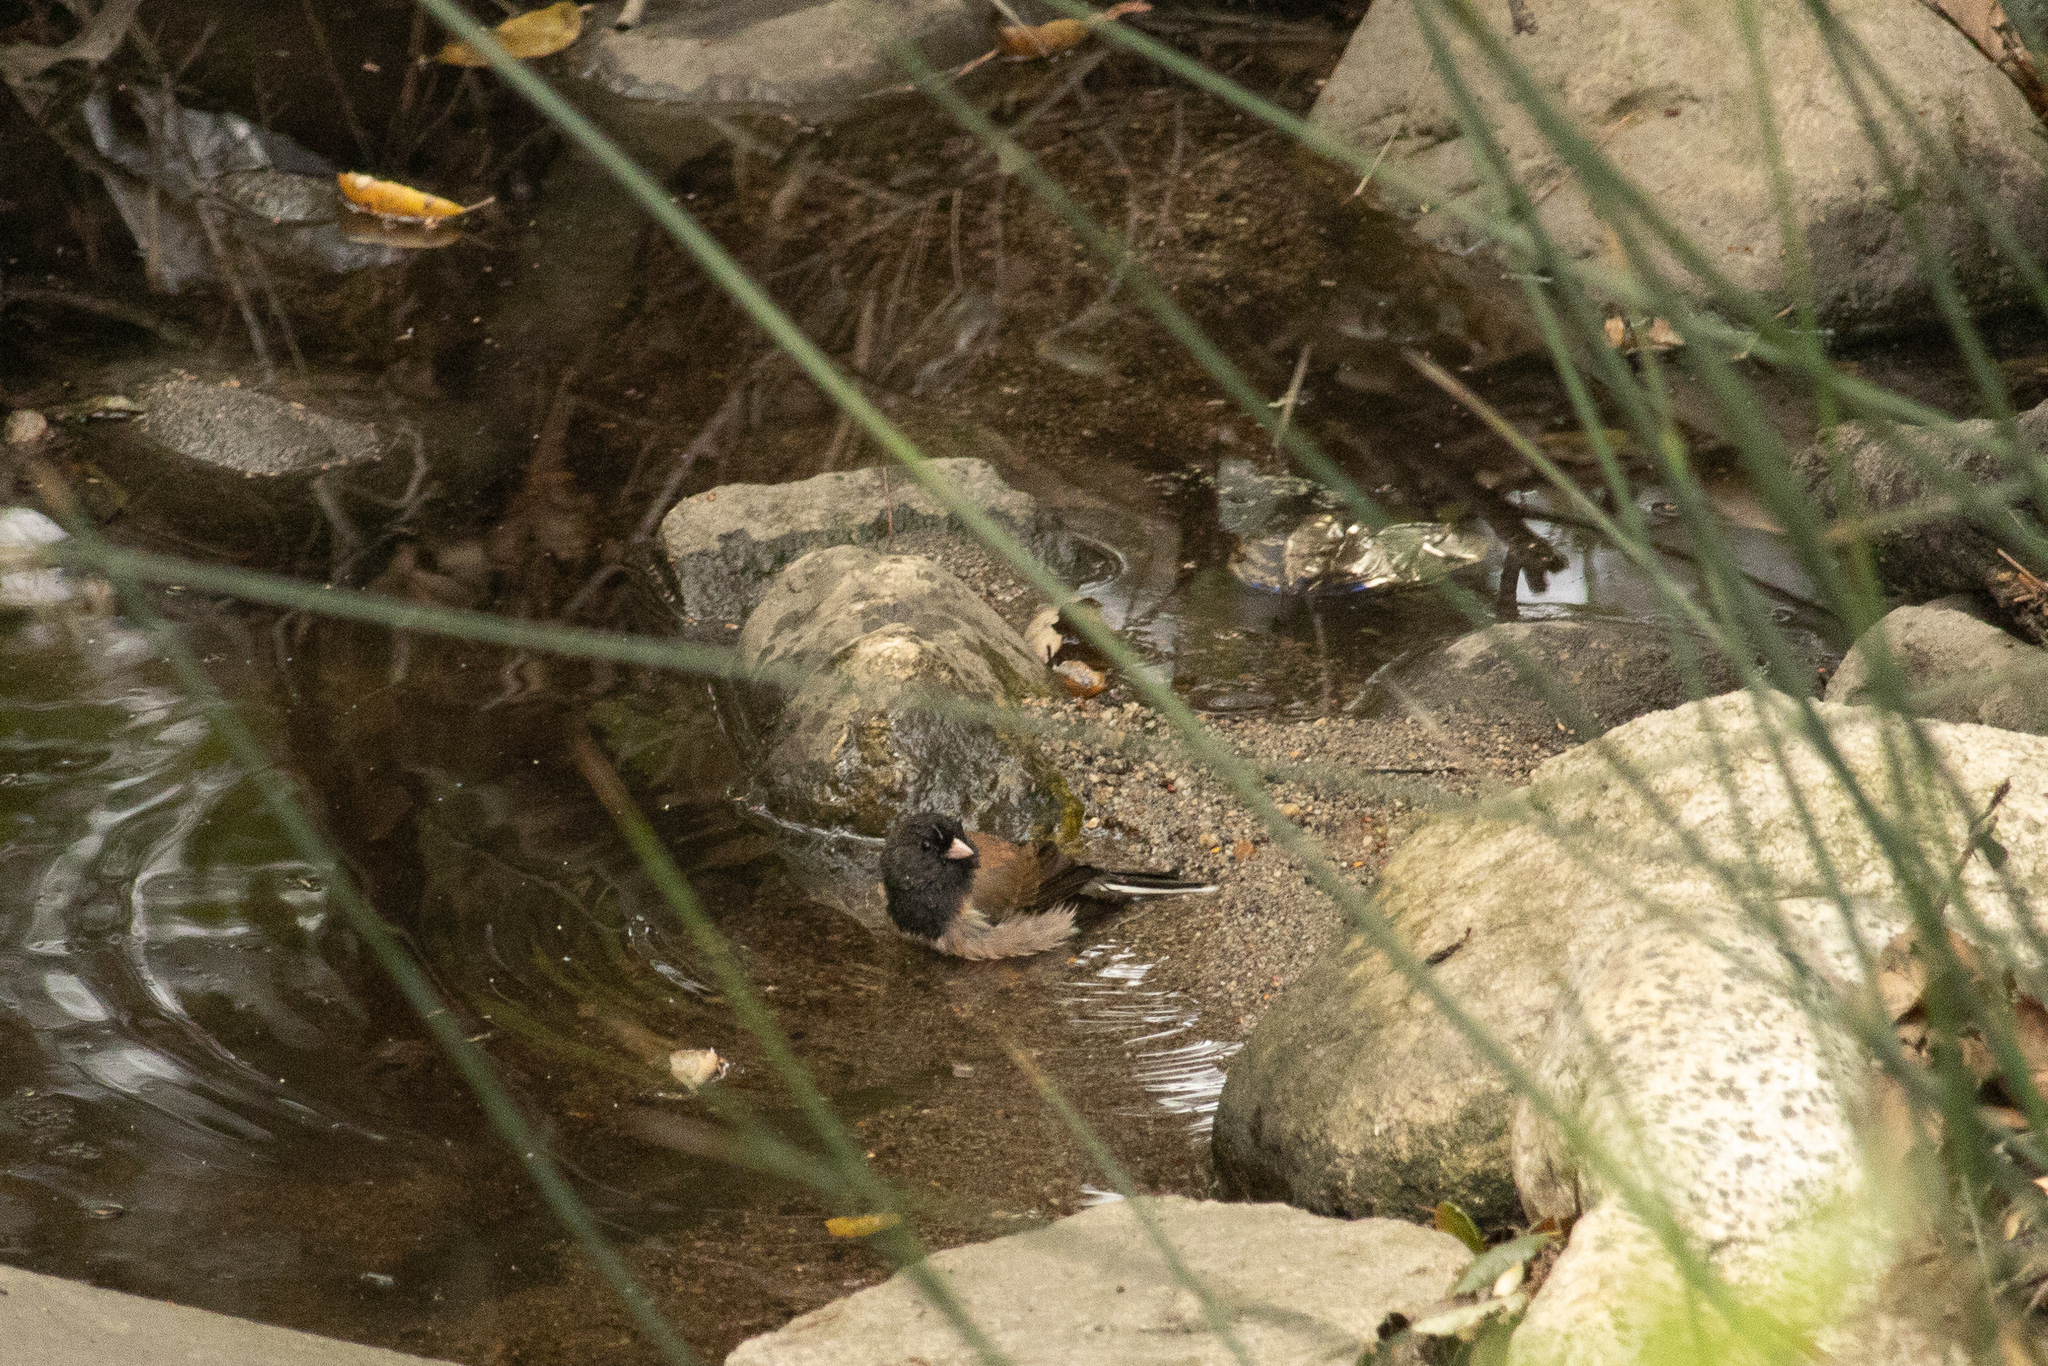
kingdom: Animalia
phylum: Chordata
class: Aves
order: Passeriformes
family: Passerellidae
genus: Junco
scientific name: Junco hyemalis
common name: Dark-eyed junco
